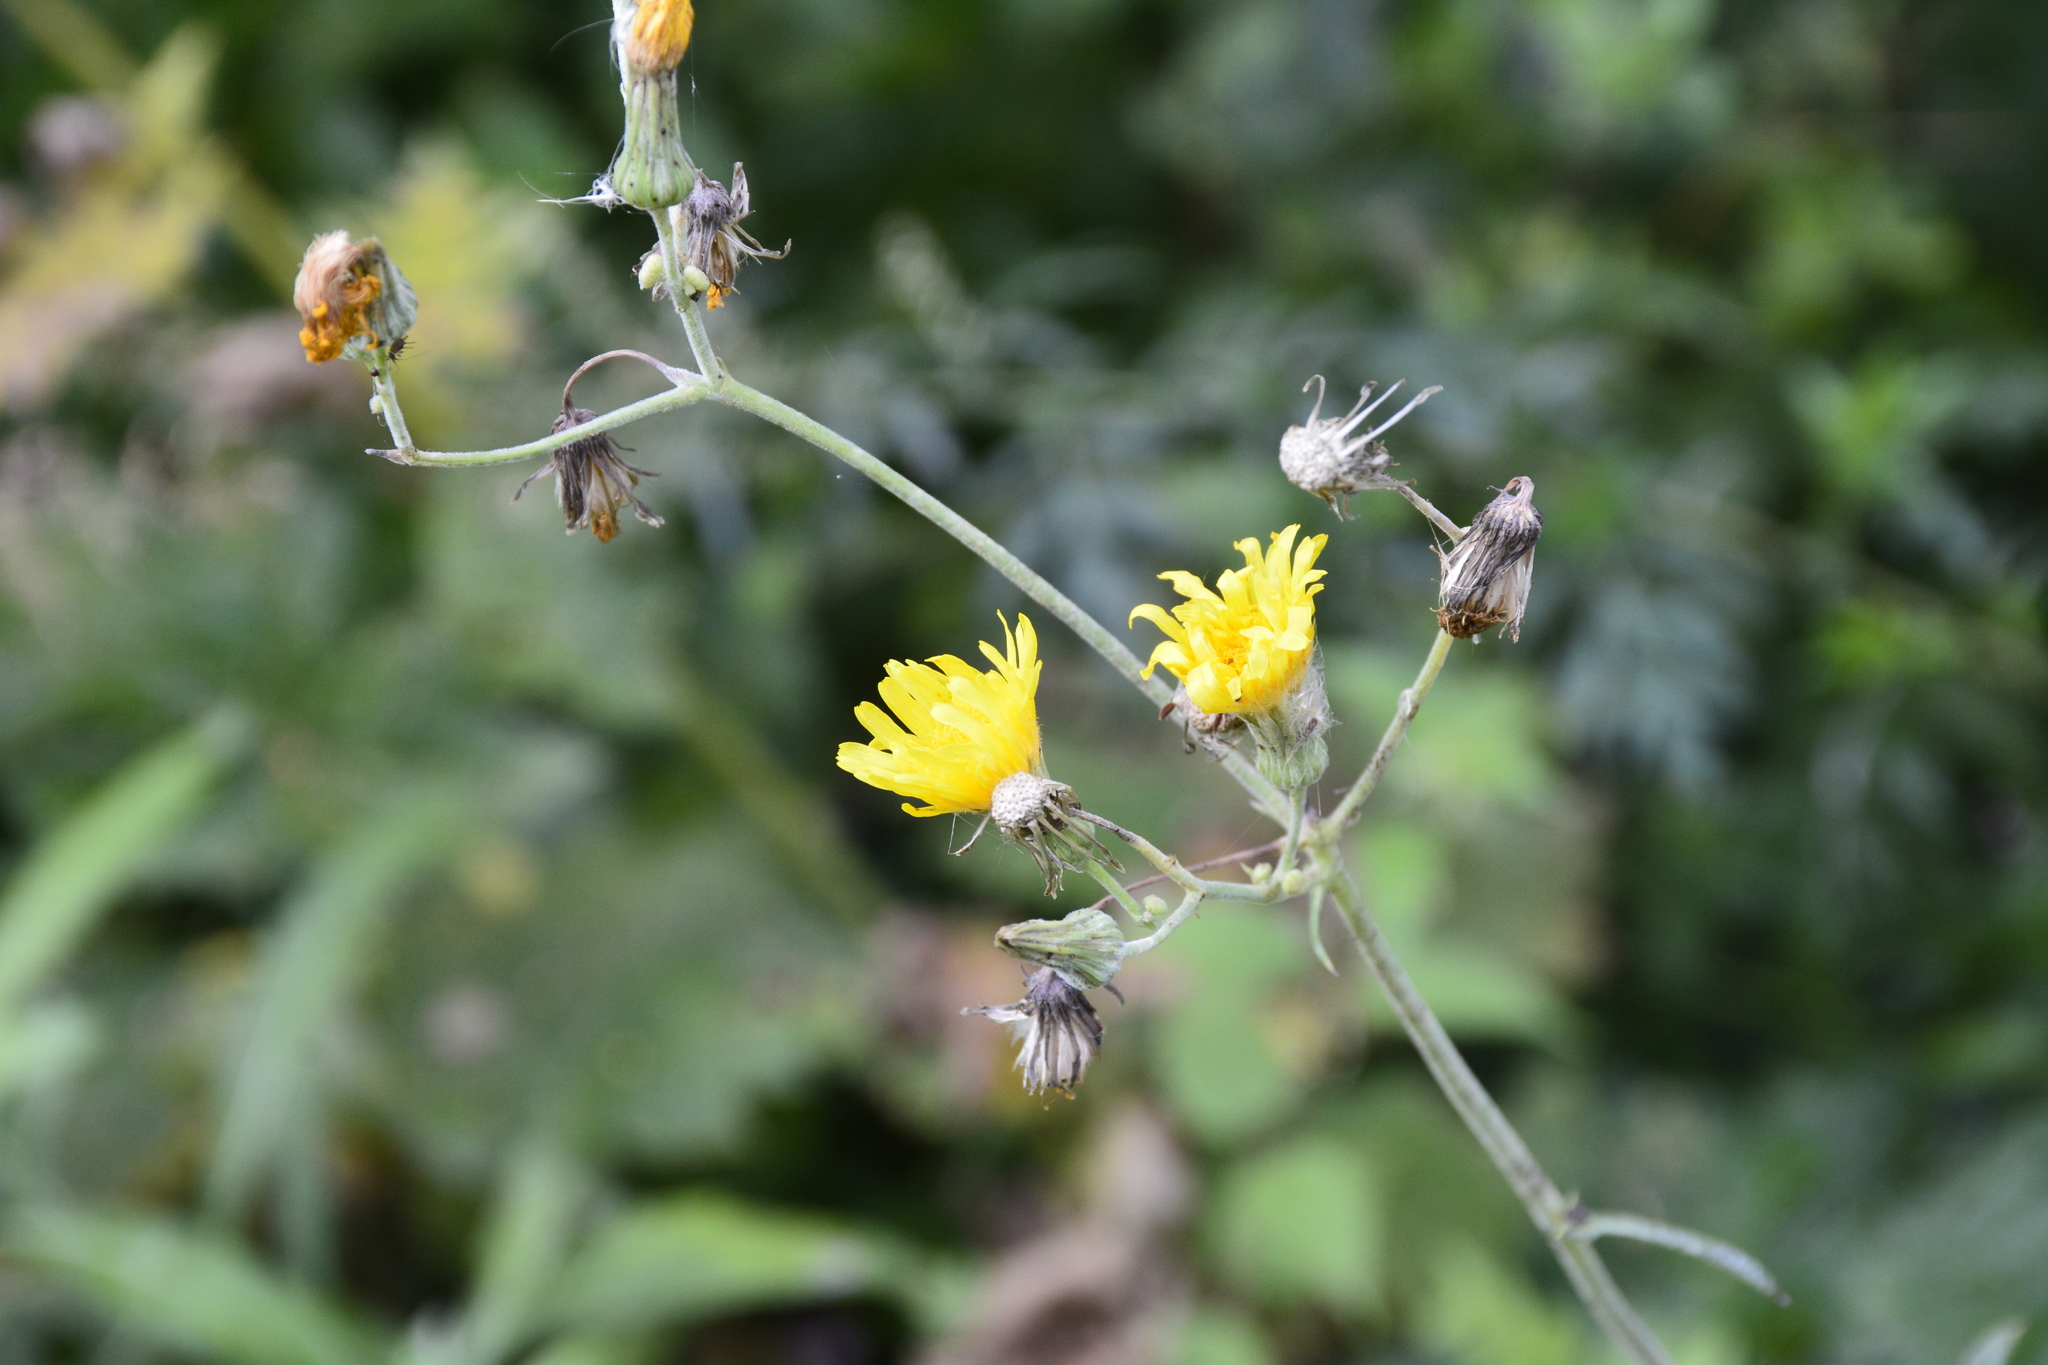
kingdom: Plantae
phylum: Tracheophyta
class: Magnoliopsida
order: Asterales
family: Asteraceae
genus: Sonchus
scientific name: Sonchus arvensis
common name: Perennial sow-thistle
